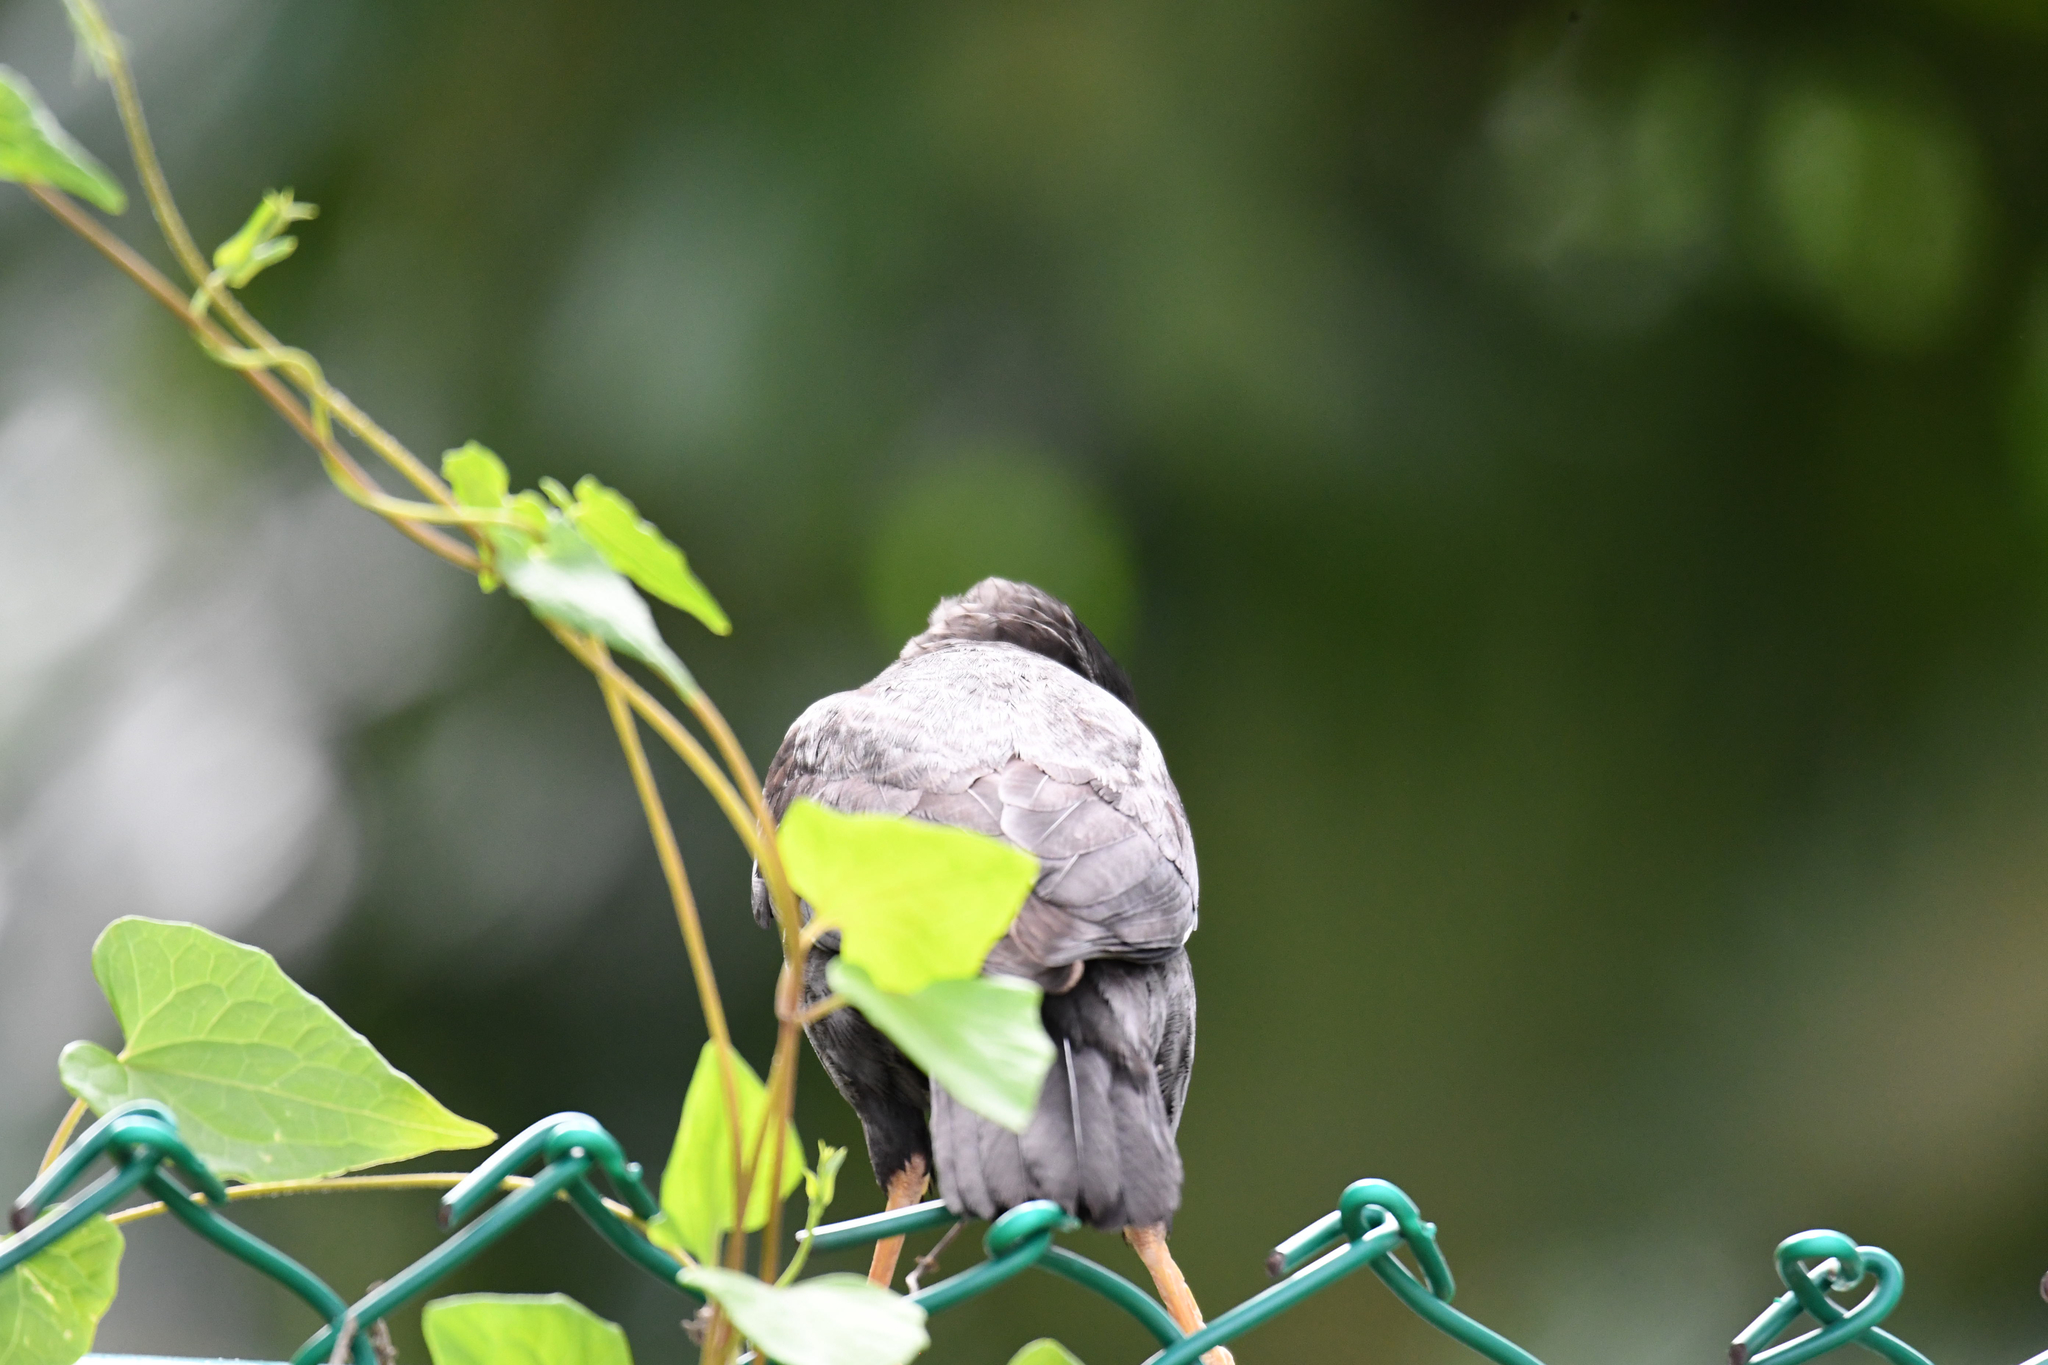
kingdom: Animalia
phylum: Chordata
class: Aves
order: Passeriformes
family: Sturnidae
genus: Acridotheres
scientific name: Acridotheres cristatellus
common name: Crested myna
